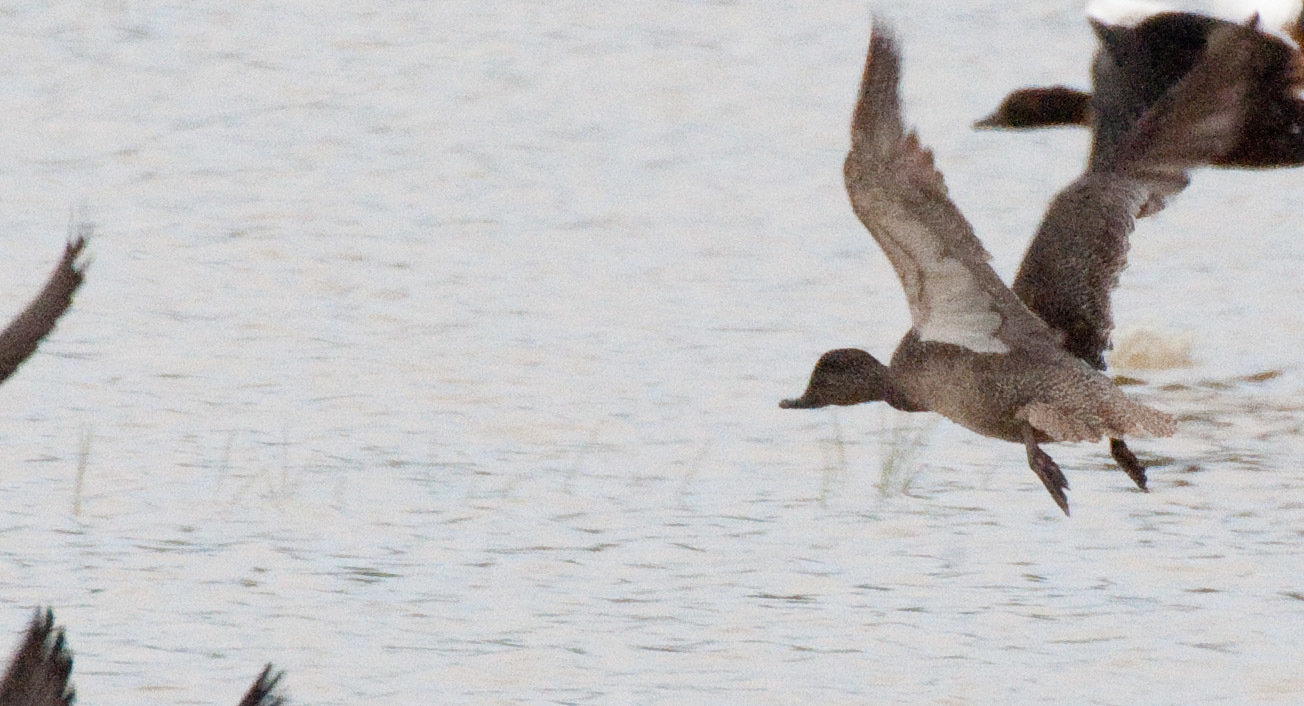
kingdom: Animalia
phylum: Chordata
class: Aves
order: Anseriformes
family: Anatidae
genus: Stictonetta
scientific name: Stictonetta naevosa
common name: Freckled duck
